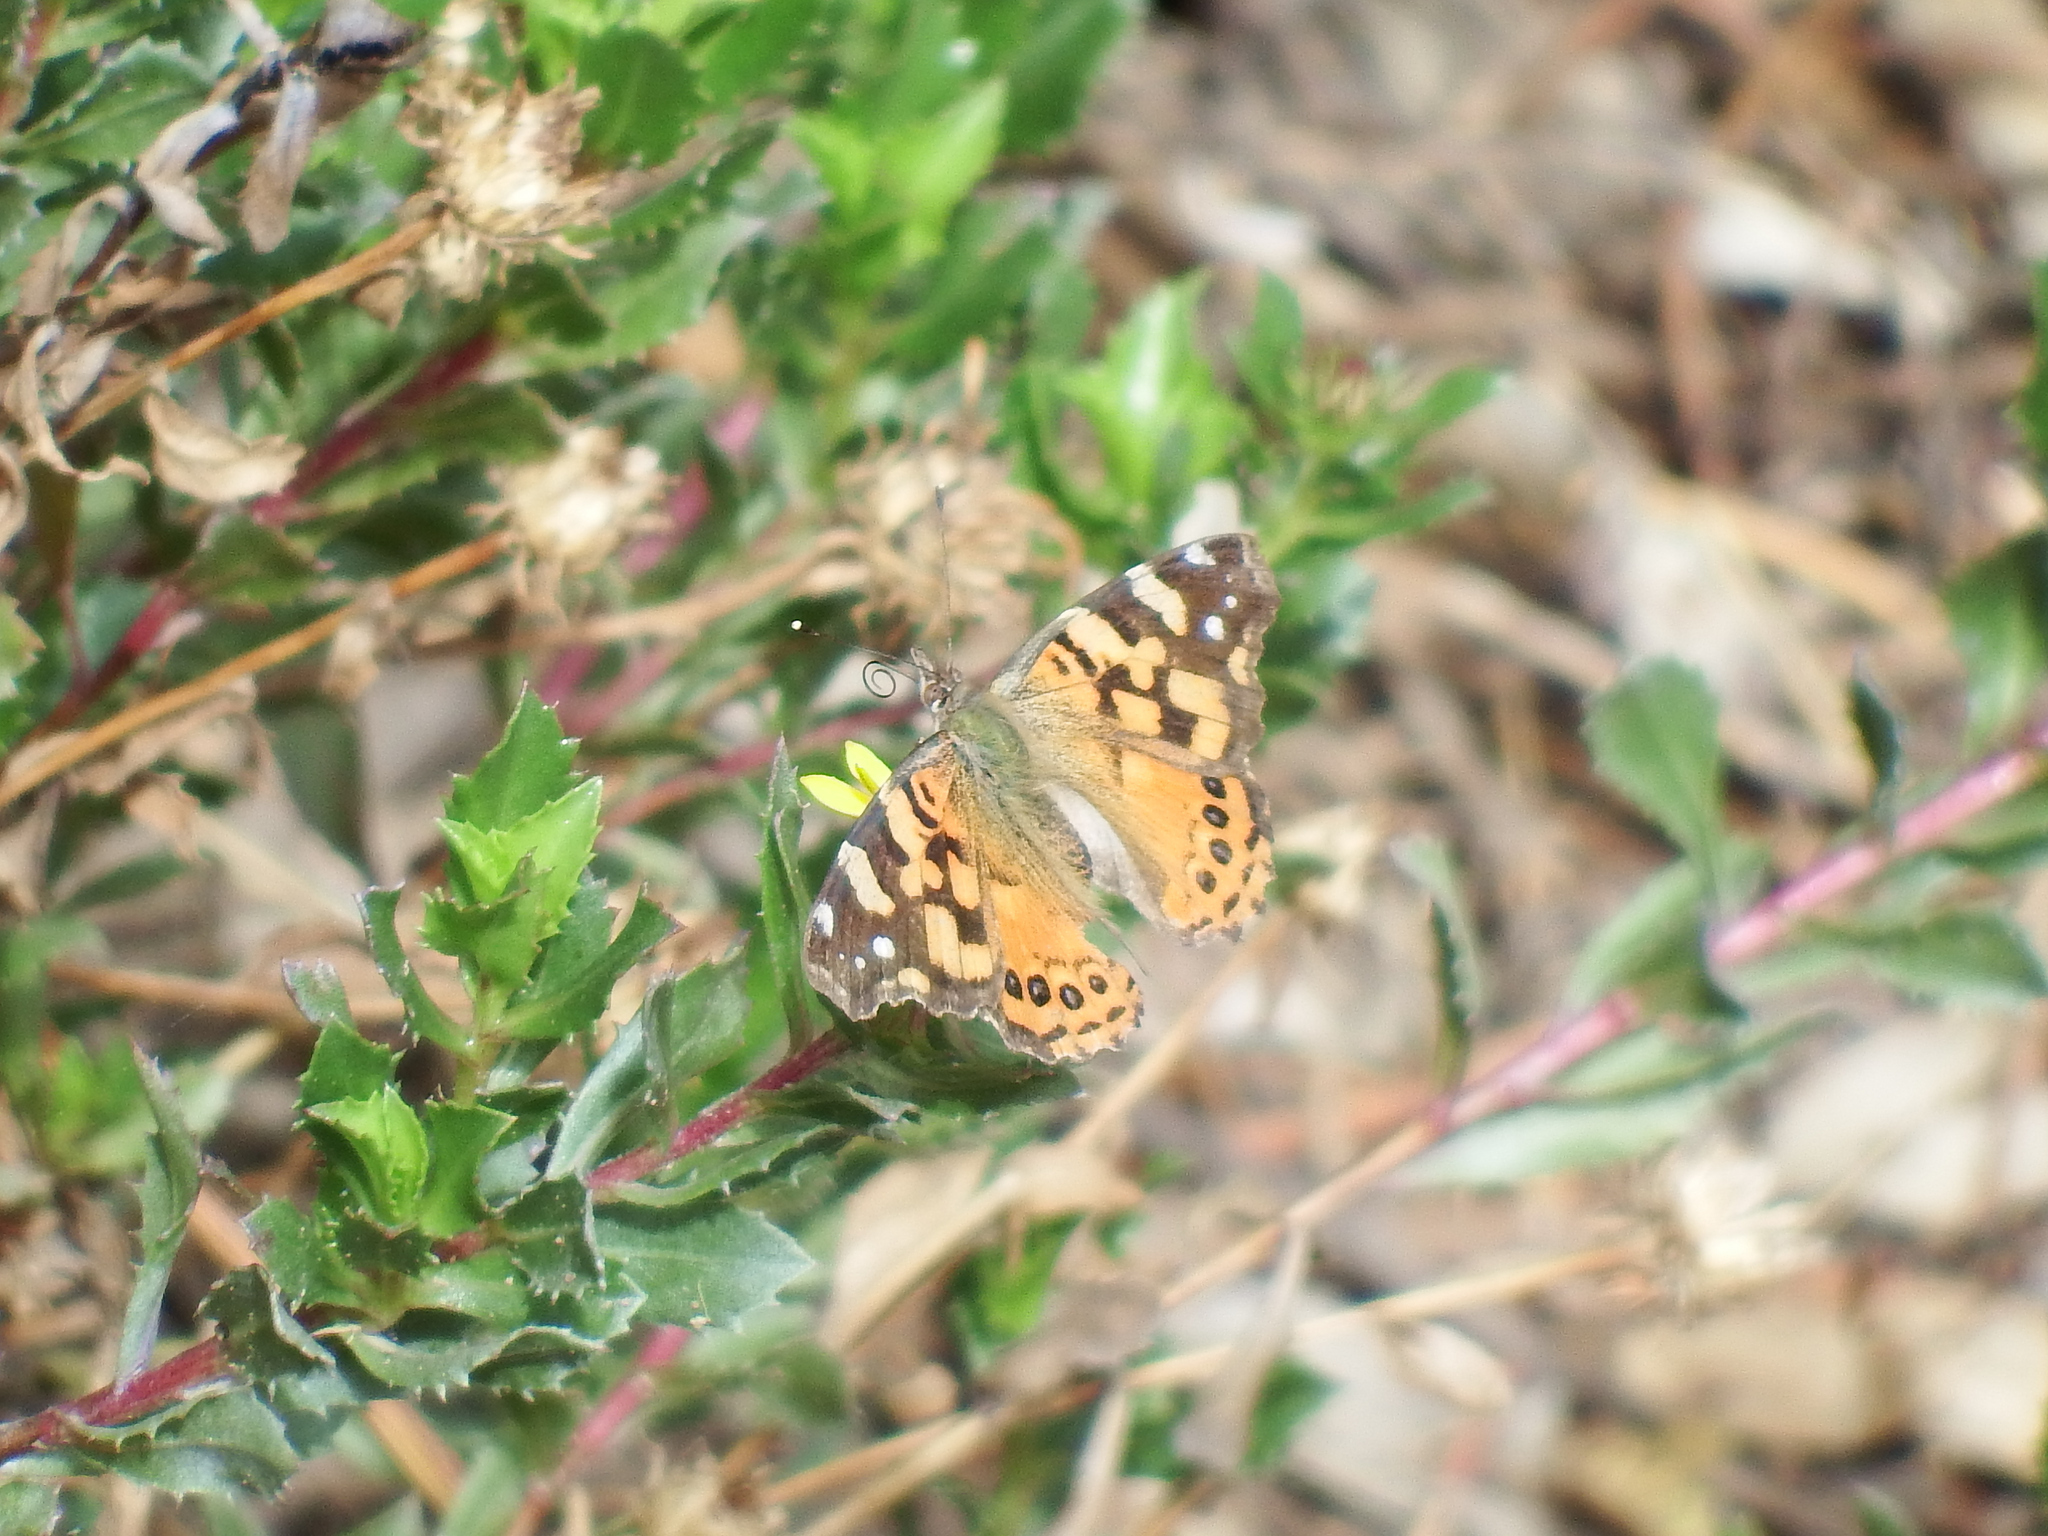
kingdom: Animalia
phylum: Arthropoda
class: Insecta
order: Lepidoptera
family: Nymphalidae
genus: Vanessa
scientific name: Vanessa carye
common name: Subtropical lady
